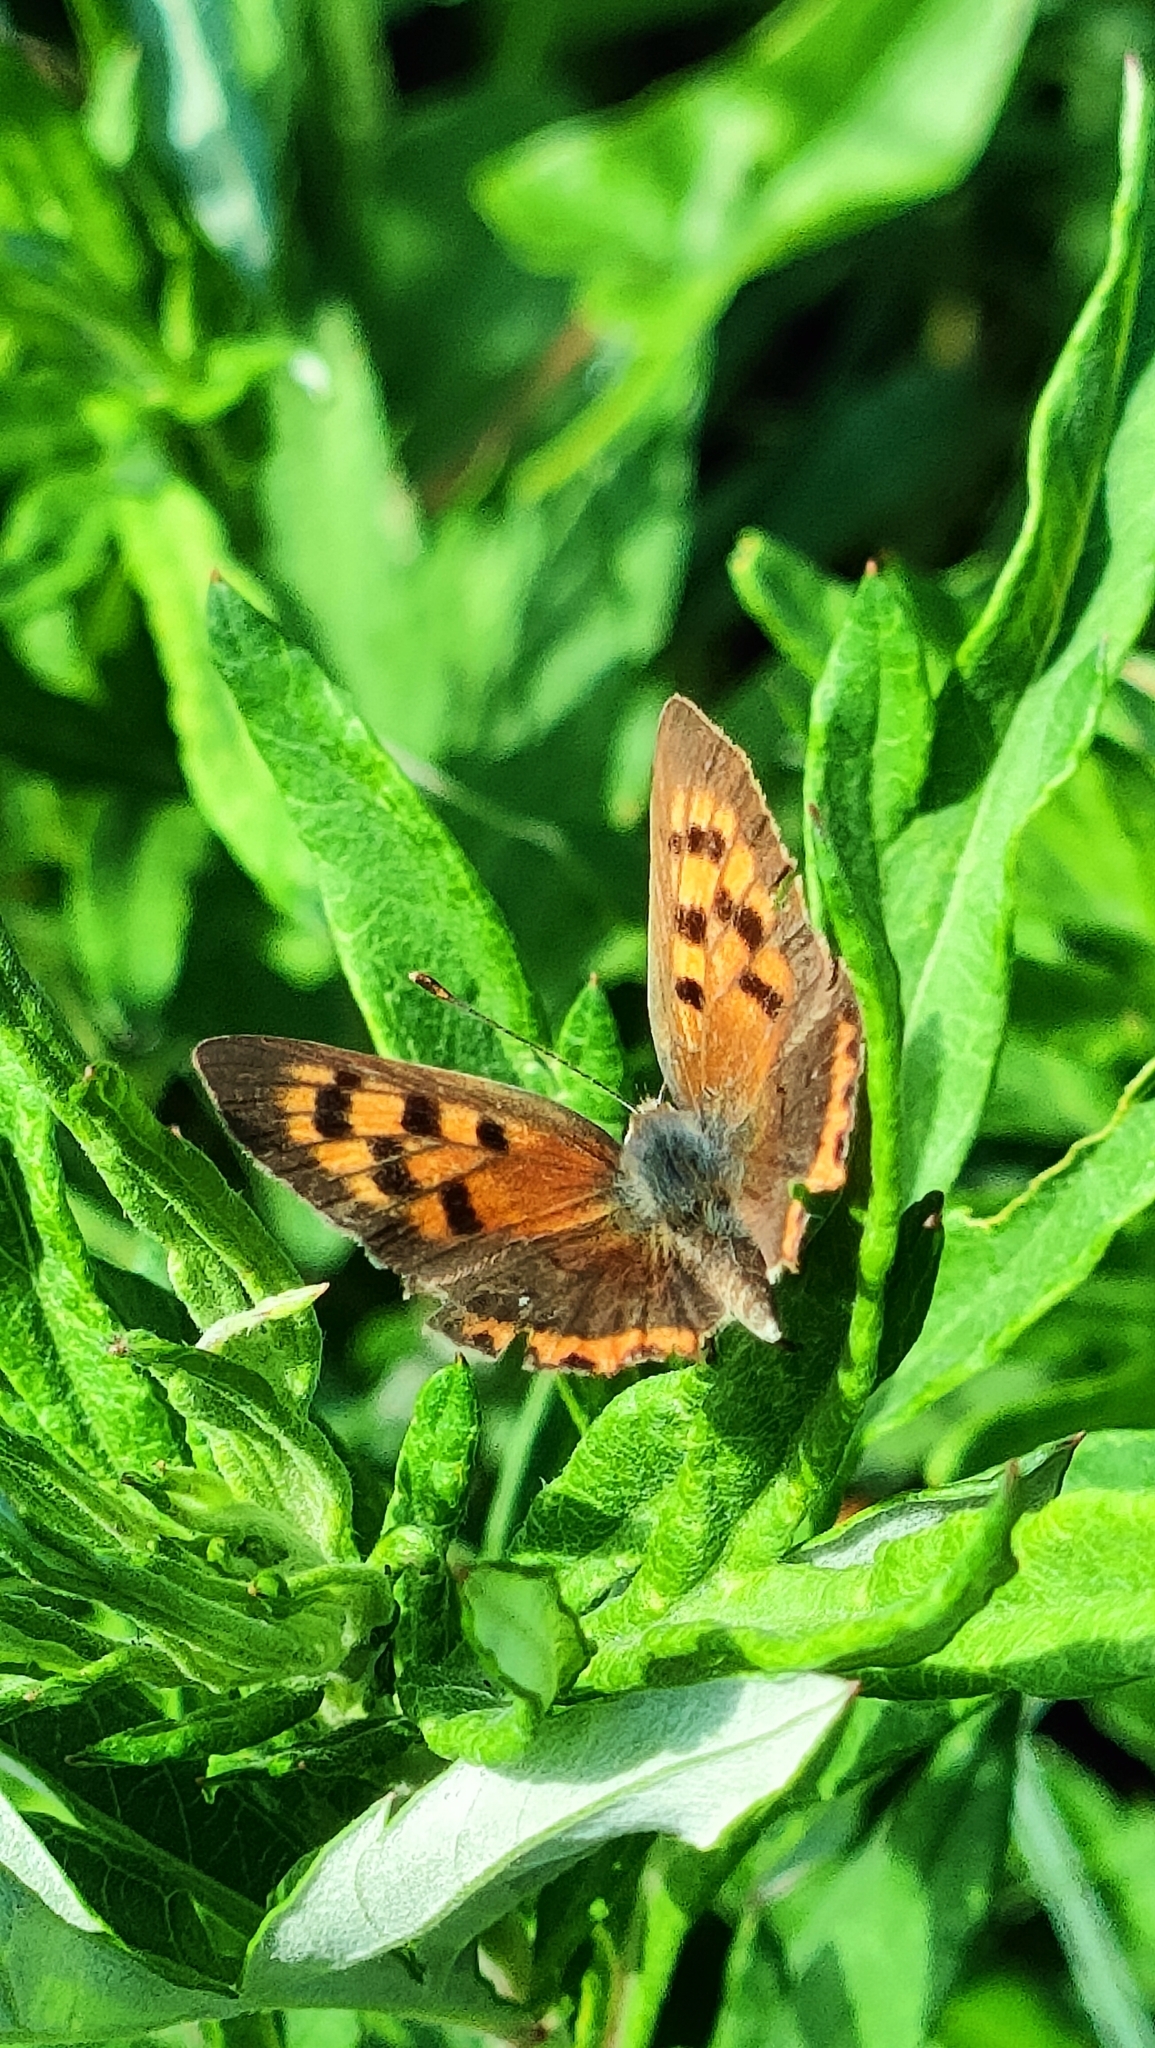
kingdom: Animalia
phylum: Arthropoda
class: Insecta
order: Lepidoptera
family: Lycaenidae
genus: Lycaena
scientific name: Lycaena phlaeas
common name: Small copper
